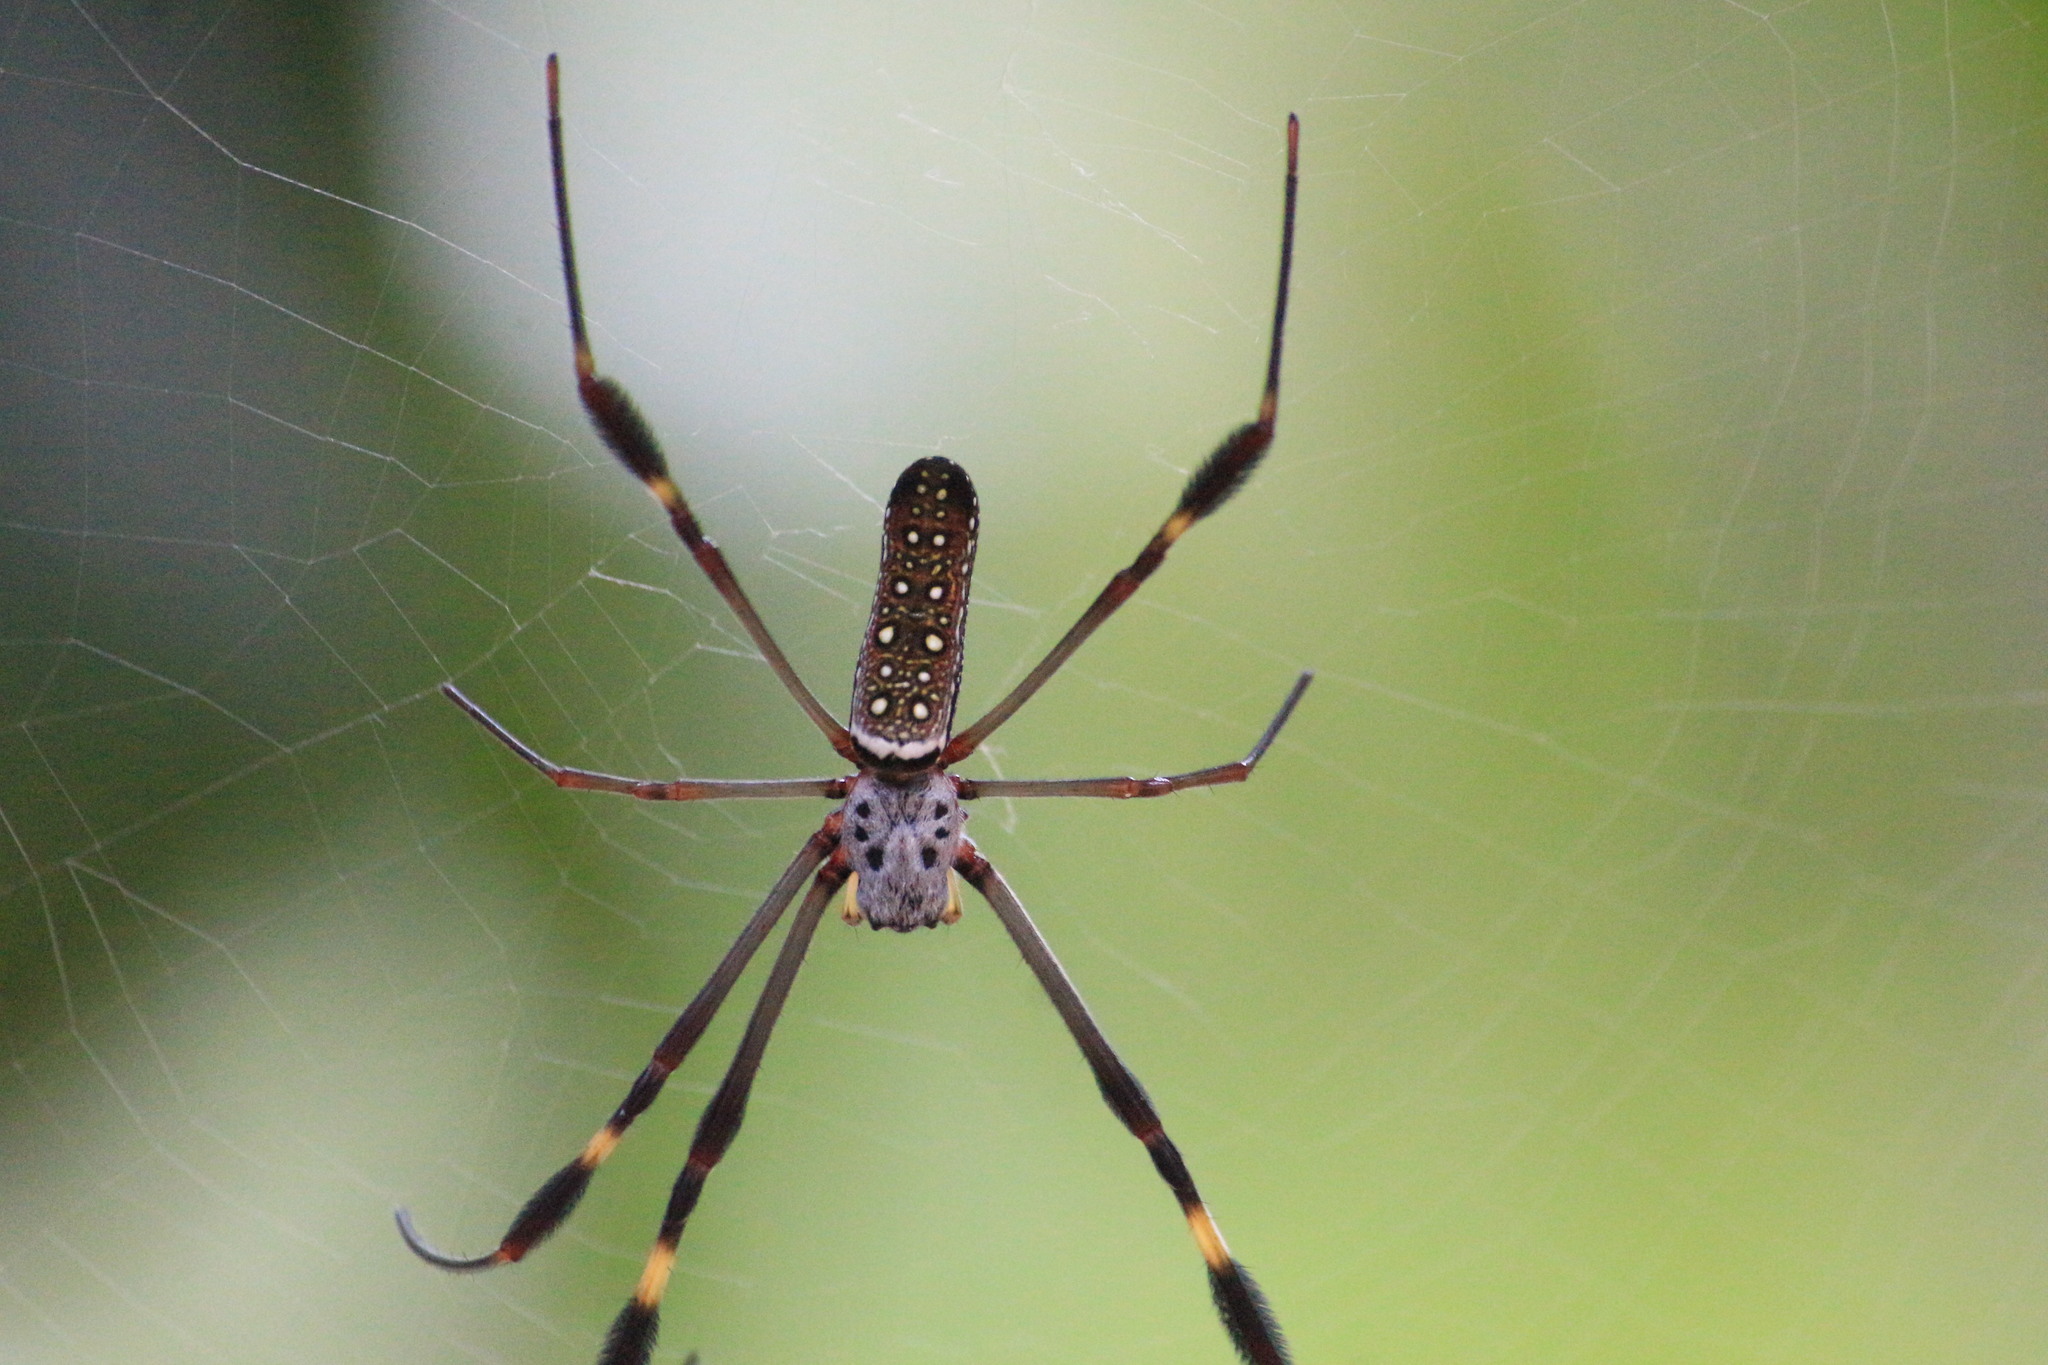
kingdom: Animalia
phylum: Arthropoda
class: Arachnida
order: Araneae
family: Araneidae
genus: Trichonephila
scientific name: Trichonephila clavipes
